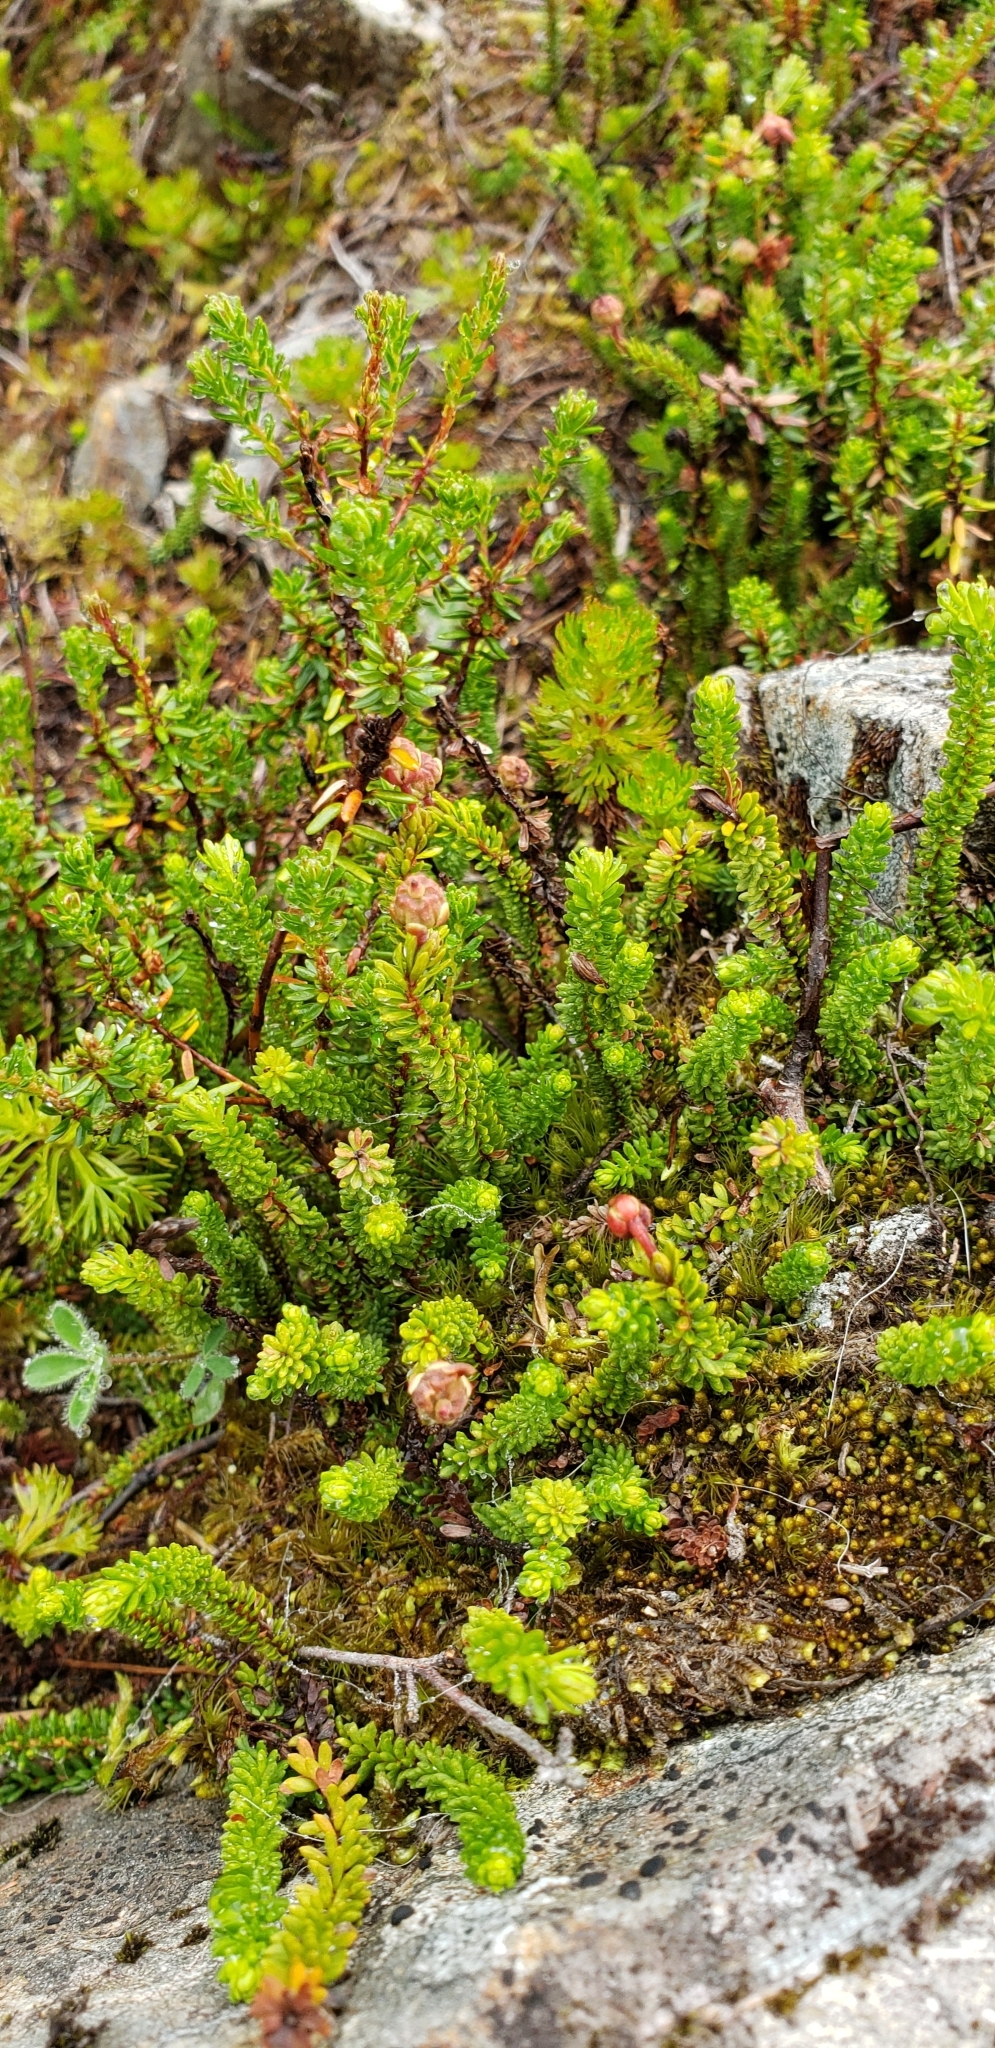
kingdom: Plantae
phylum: Tracheophyta
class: Magnoliopsida
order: Ericales
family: Ericaceae
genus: Harrimanella
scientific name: Harrimanella stelleriana
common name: Alaska bell heather
